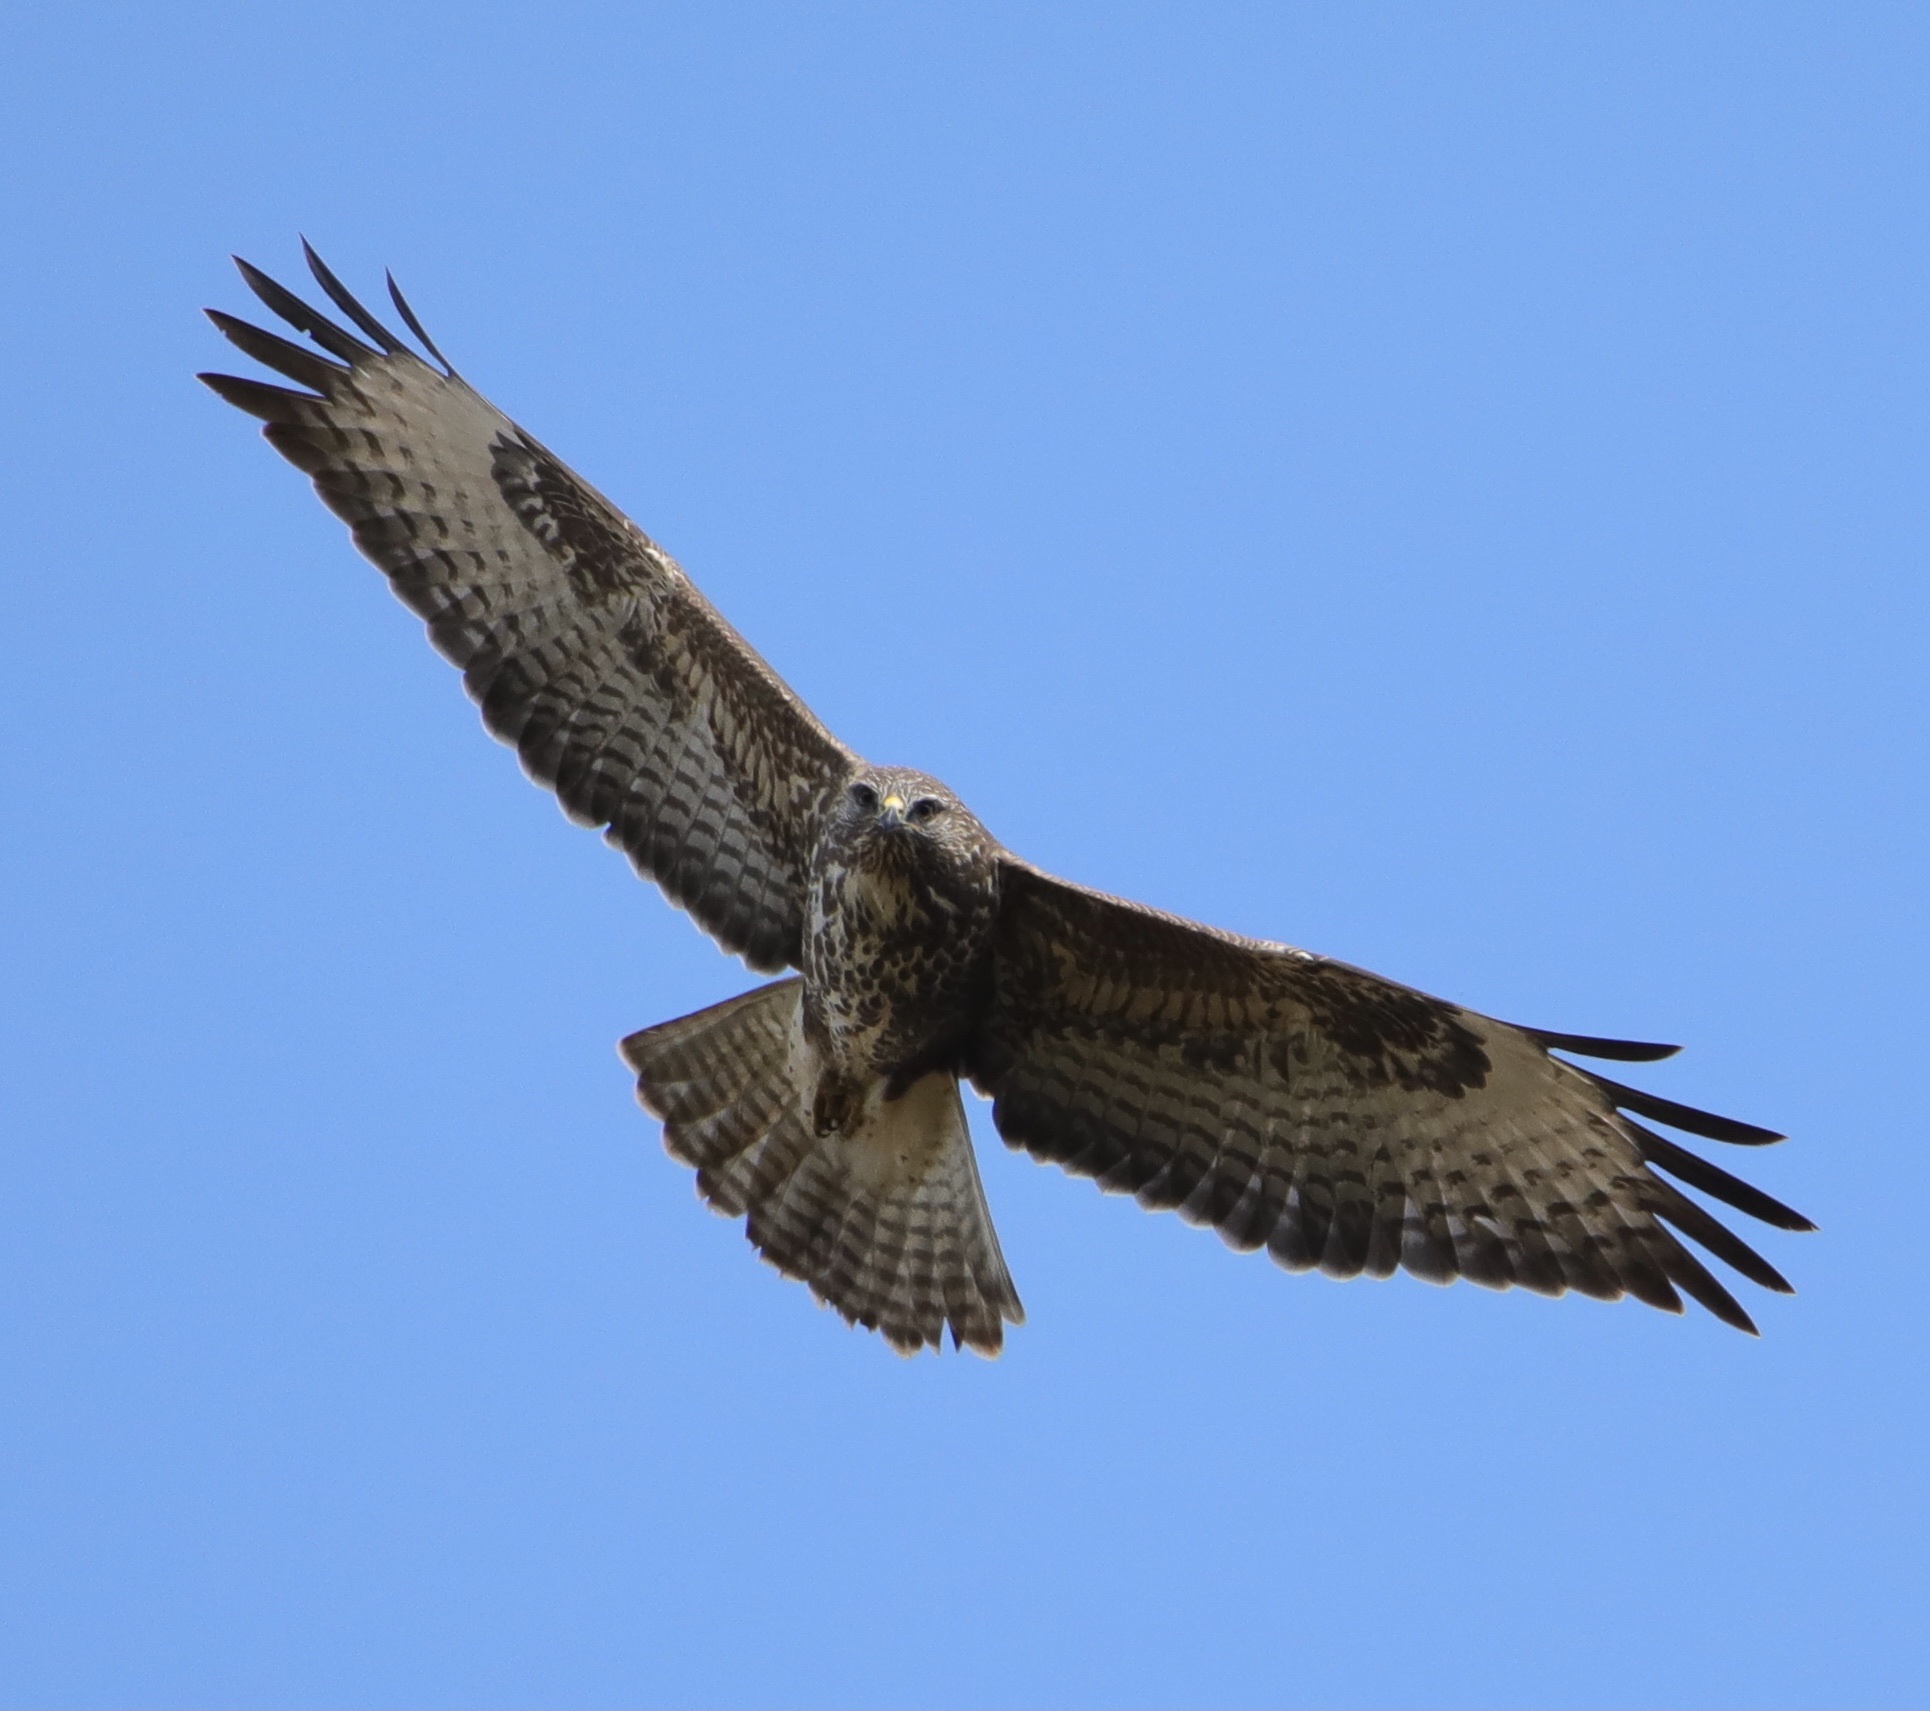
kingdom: Animalia
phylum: Chordata
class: Aves
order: Accipitriformes
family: Accipitridae
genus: Buteo
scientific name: Buteo buteo
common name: Common buzzard
